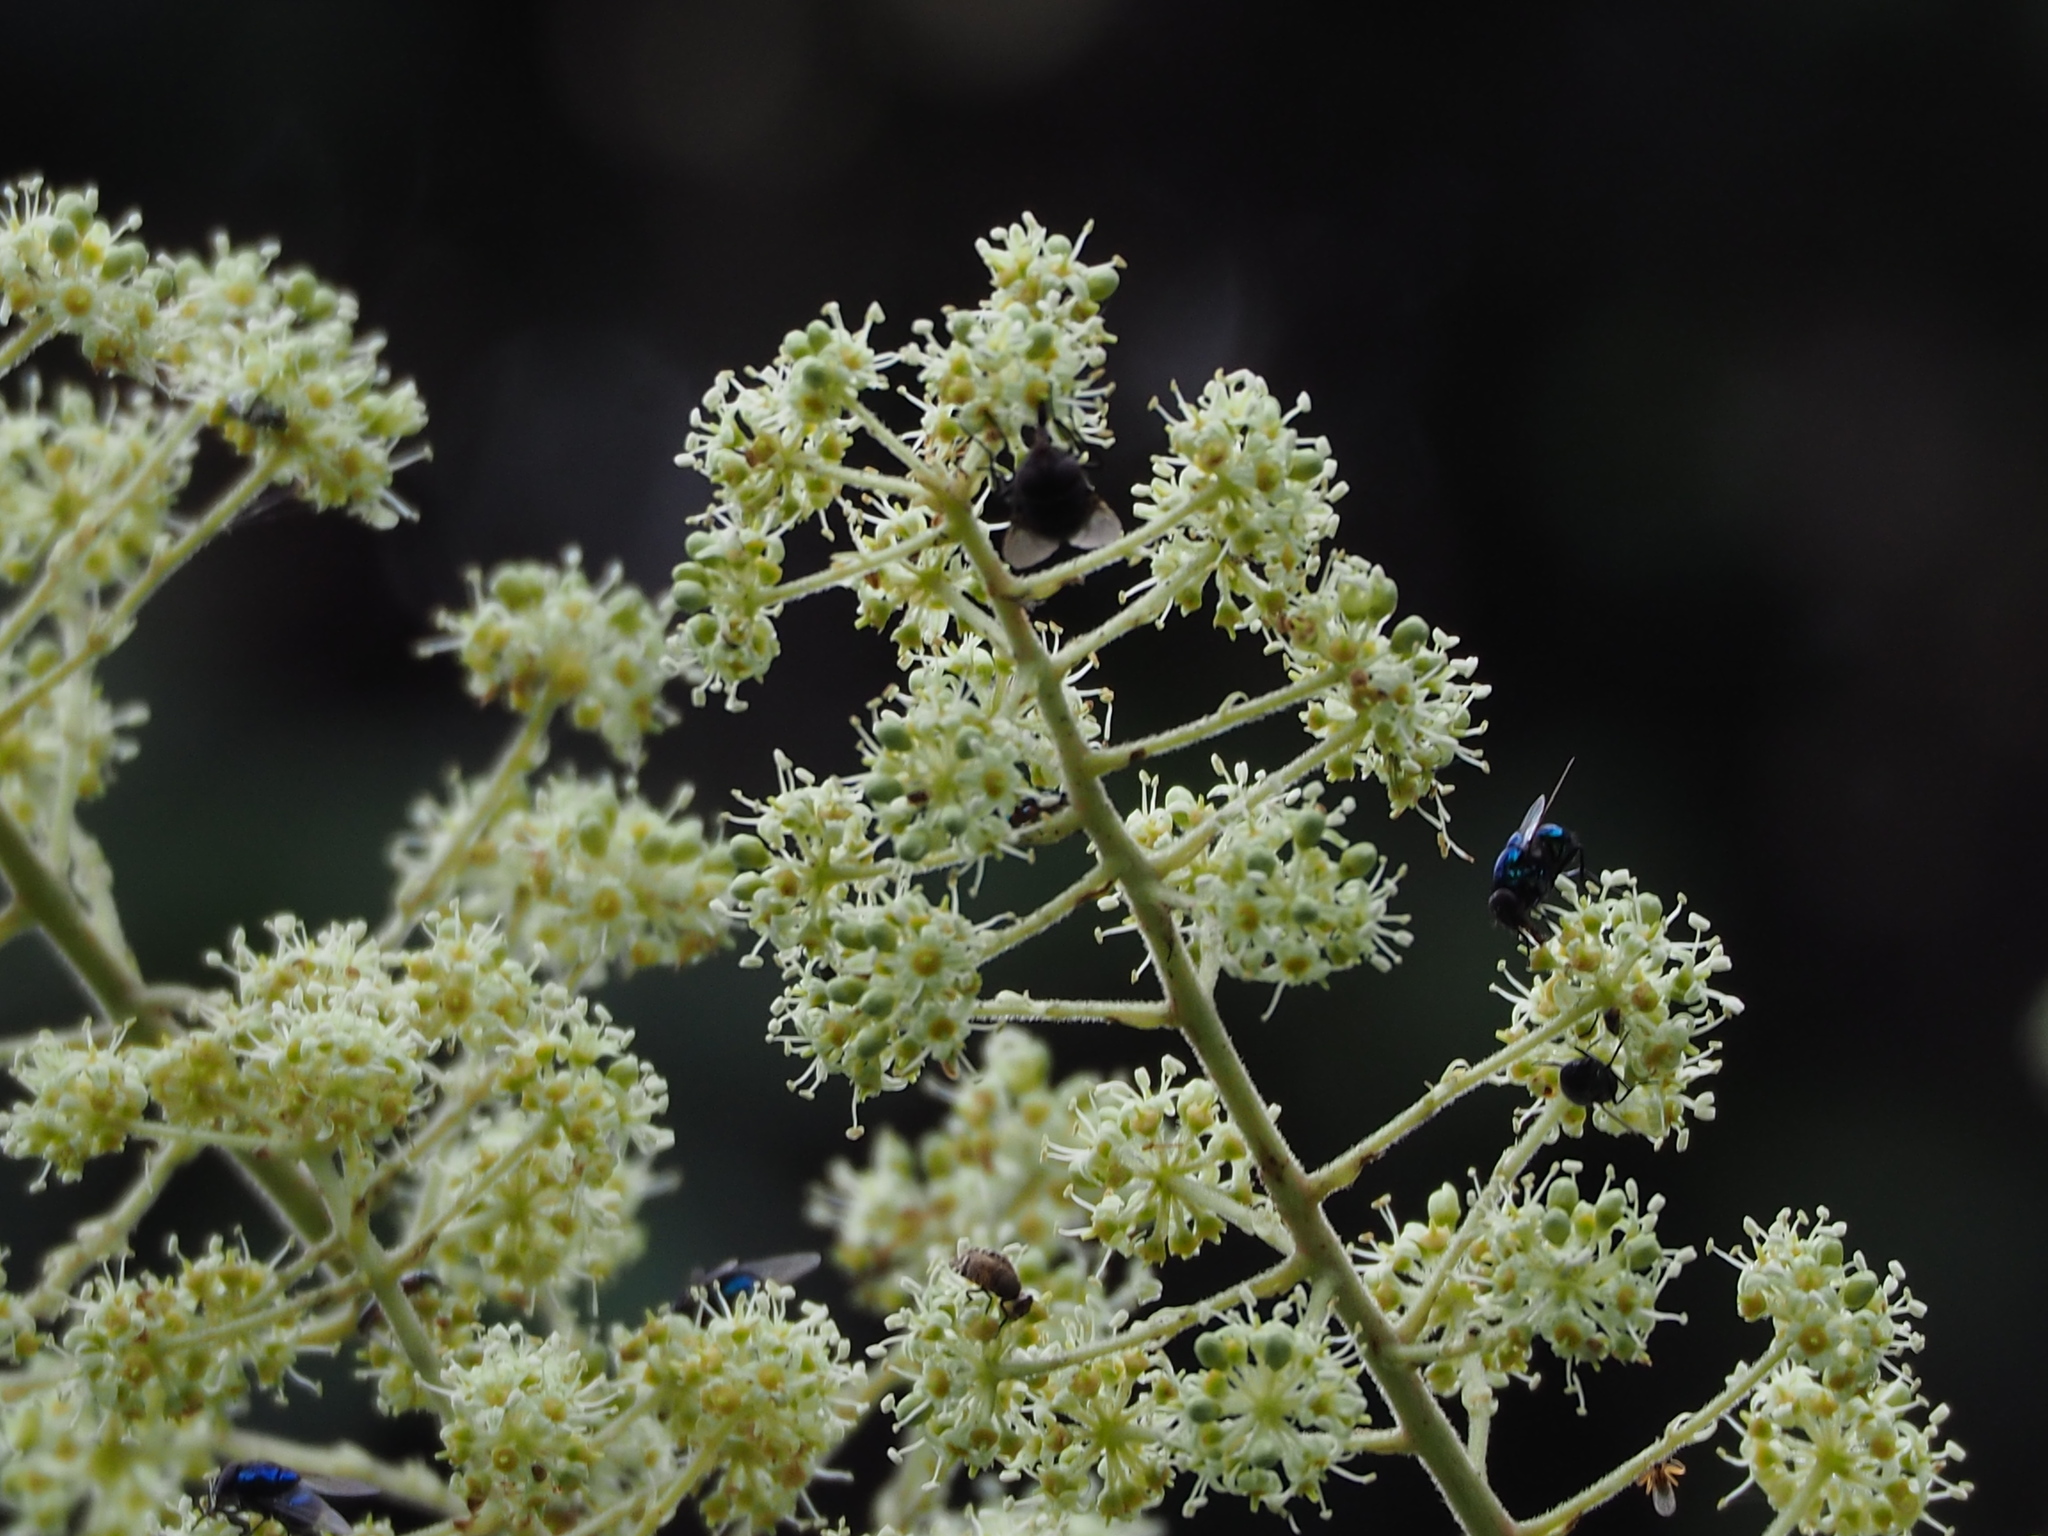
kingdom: Plantae
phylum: Tracheophyta
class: Magnoliopsida
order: Apiales
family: Araliaceae
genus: Aralia
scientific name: Aralia decaisneana
